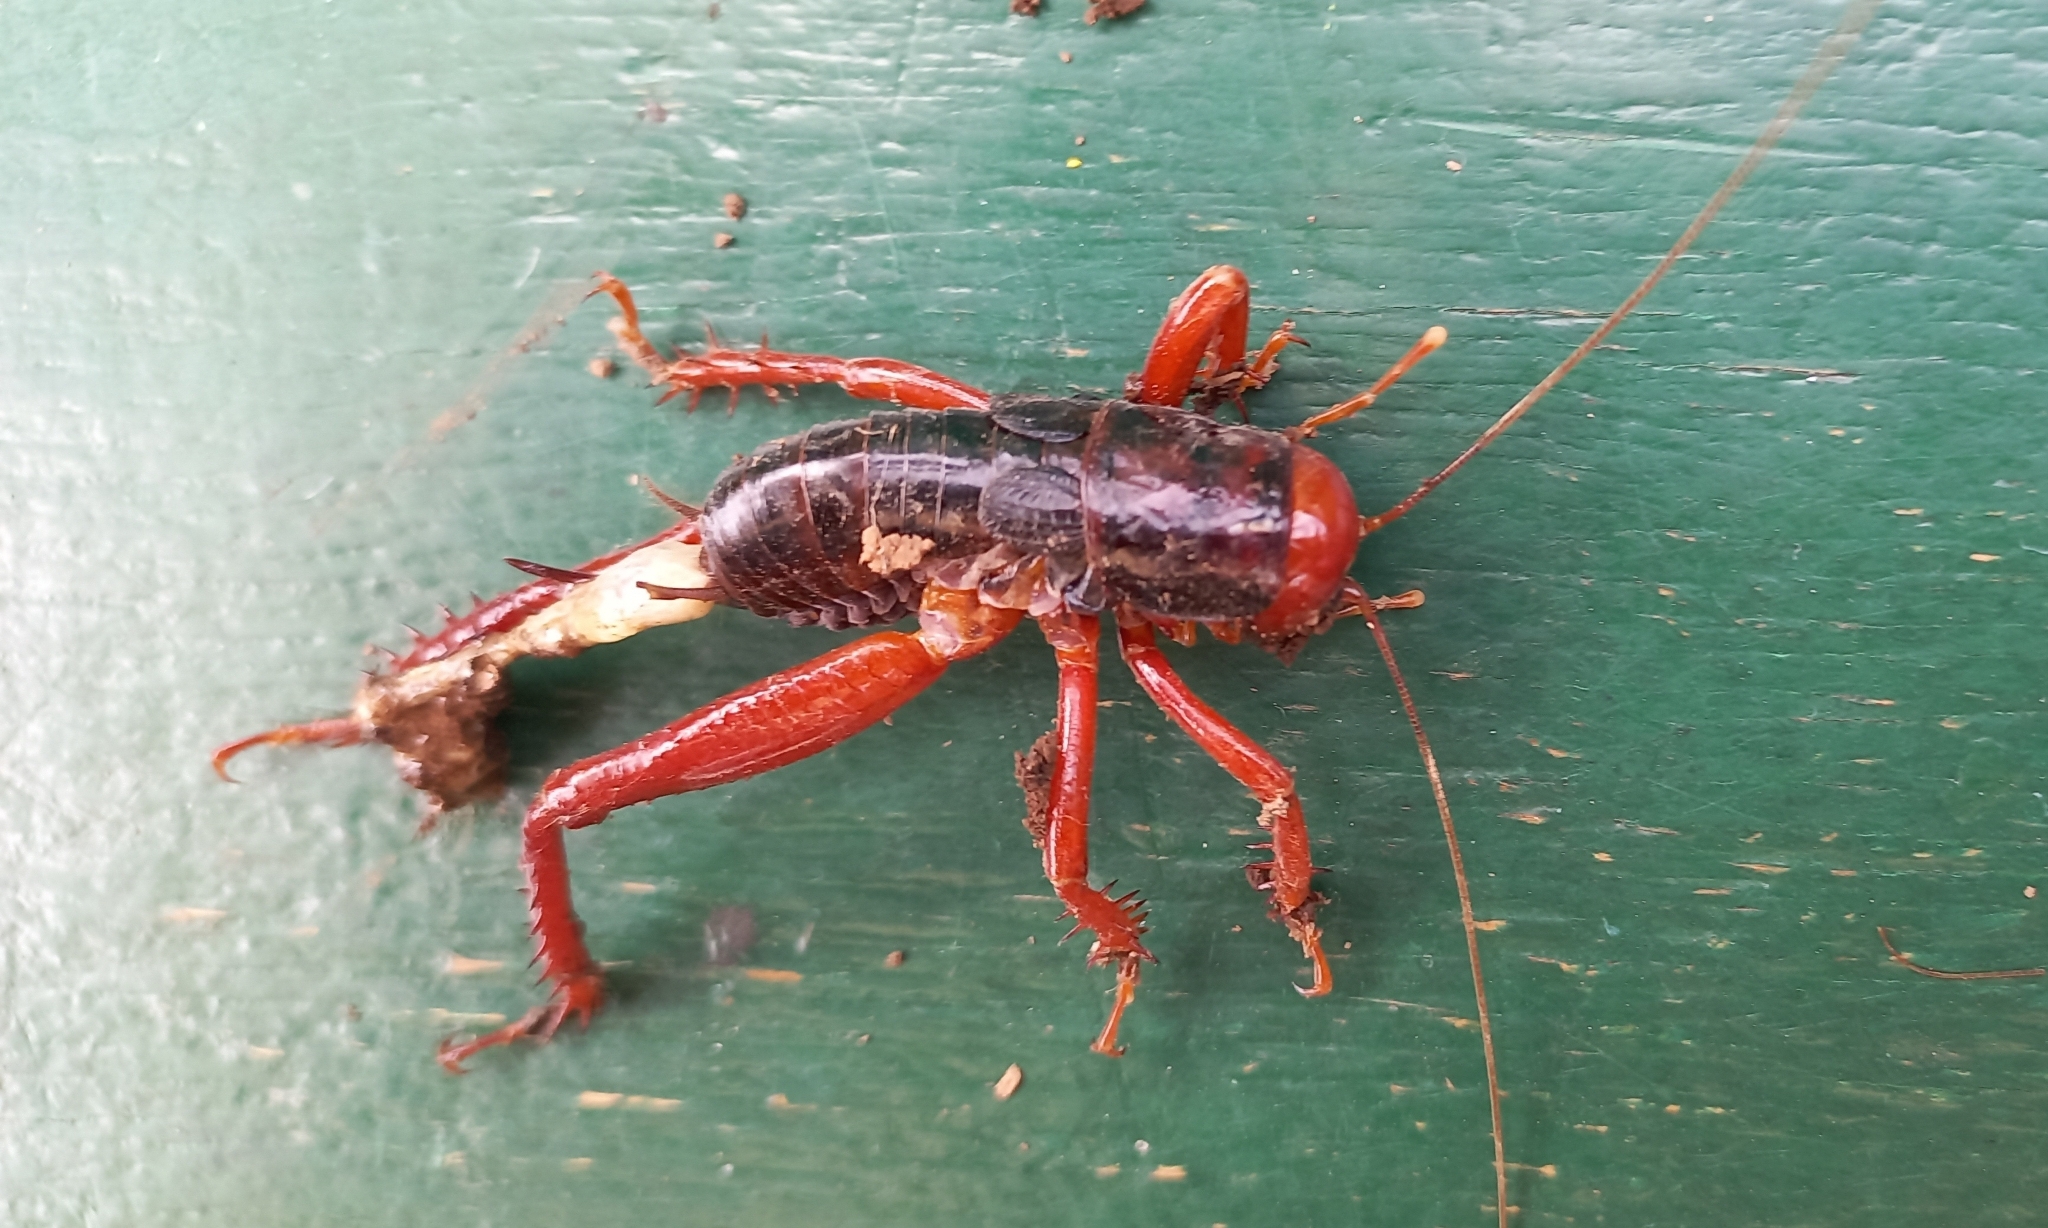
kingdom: Animalia
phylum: Arthropoda
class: Insecta
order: Orthoptera
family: Anostostomatidae
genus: Cratomelus
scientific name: Cratomelus armatus
